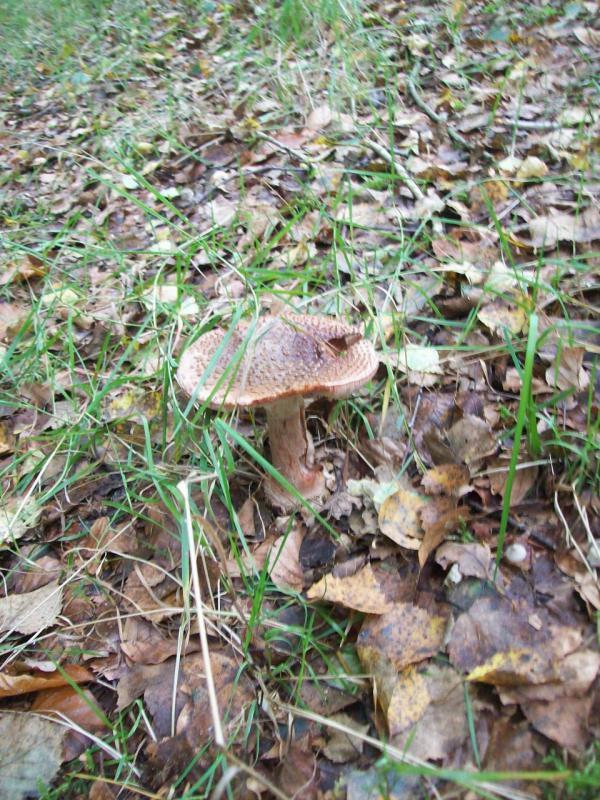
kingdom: Fungi
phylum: Basidiomycota
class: Agaricomycetes
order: Agaricales
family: Amanitaceae
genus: Amanita
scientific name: Amanita rubescens
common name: Blusher
